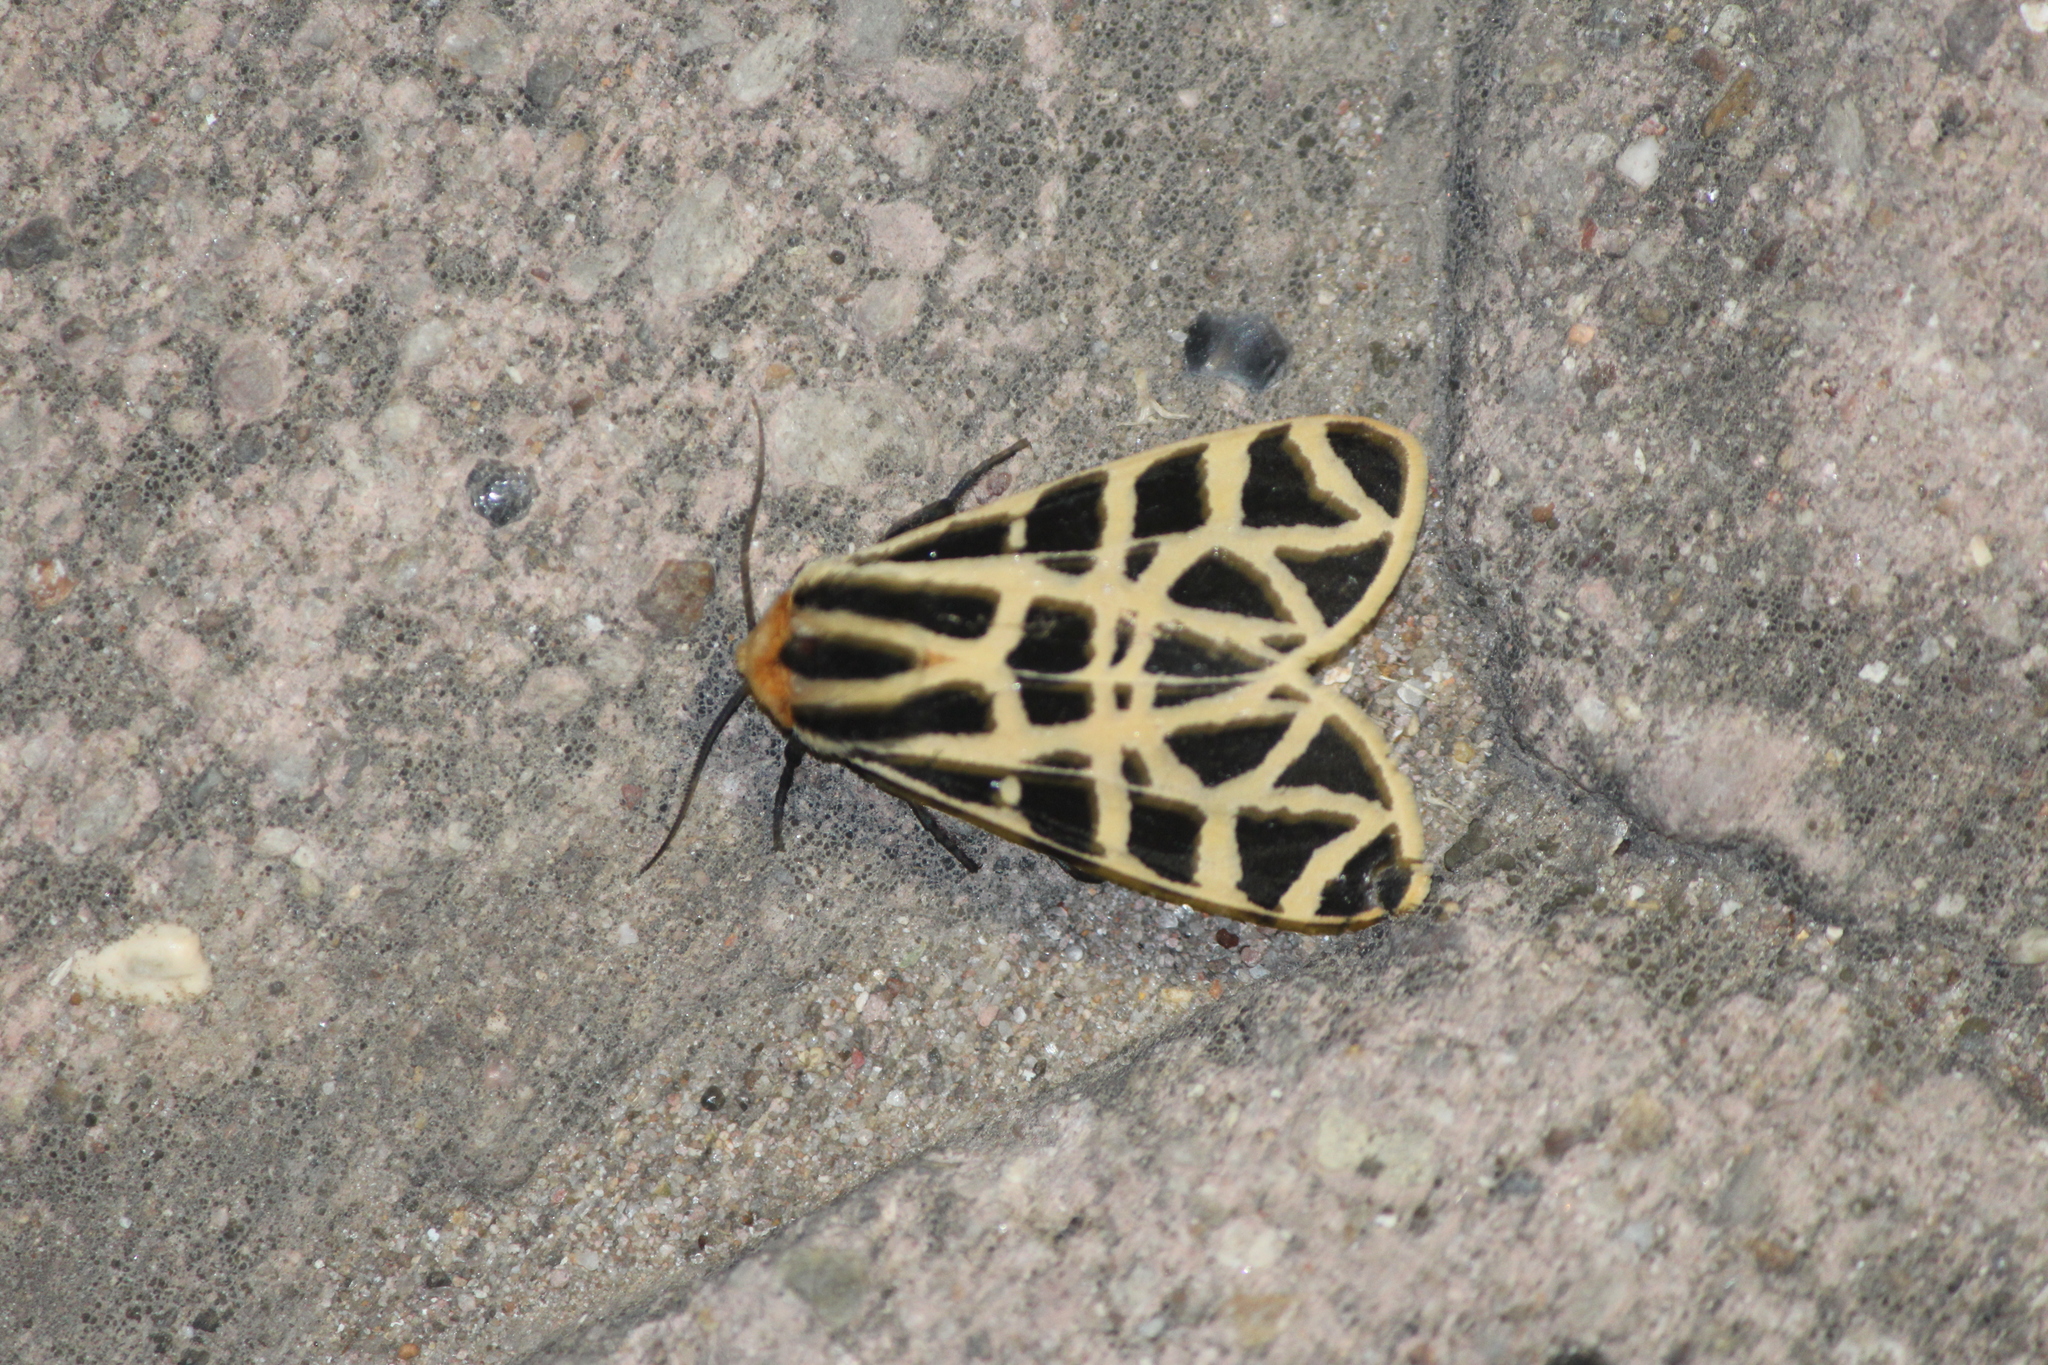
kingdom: Animalia
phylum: Arthropoda
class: Insecta
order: Lepidoptera
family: Erebidae
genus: Apantesis
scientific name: Apantesis
